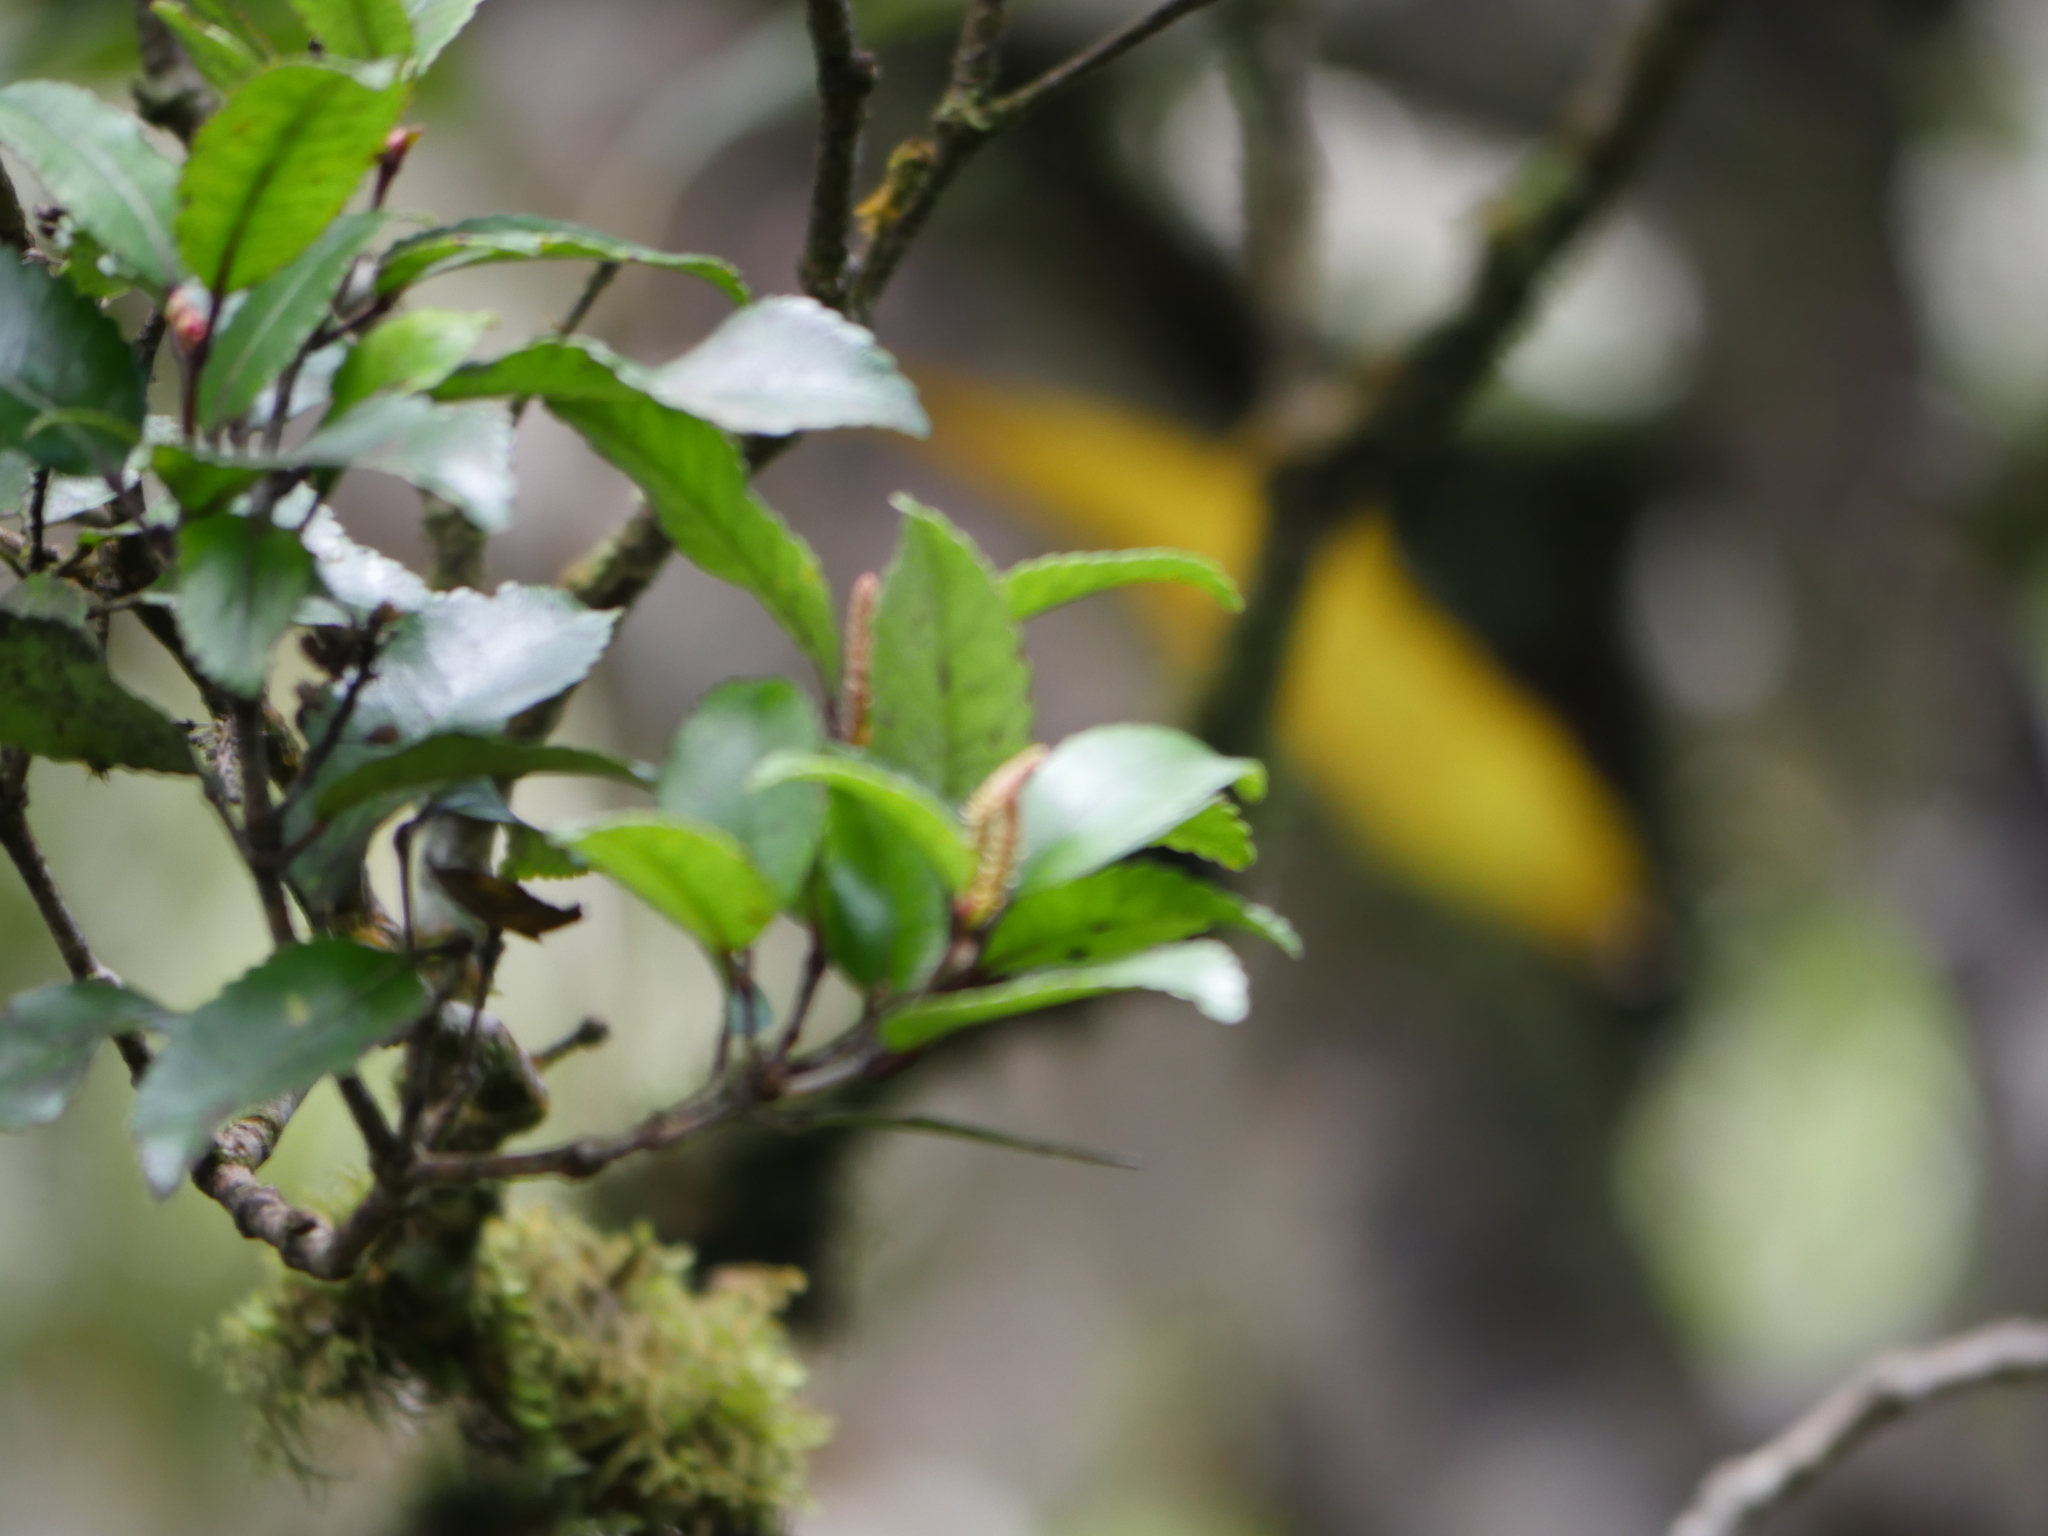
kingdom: Plantae
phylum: Tracheophyta
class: Magnoliopsida
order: Oxalidales
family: Cunoniaceae
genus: Pterophylla
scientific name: Pterophylla racemosa
